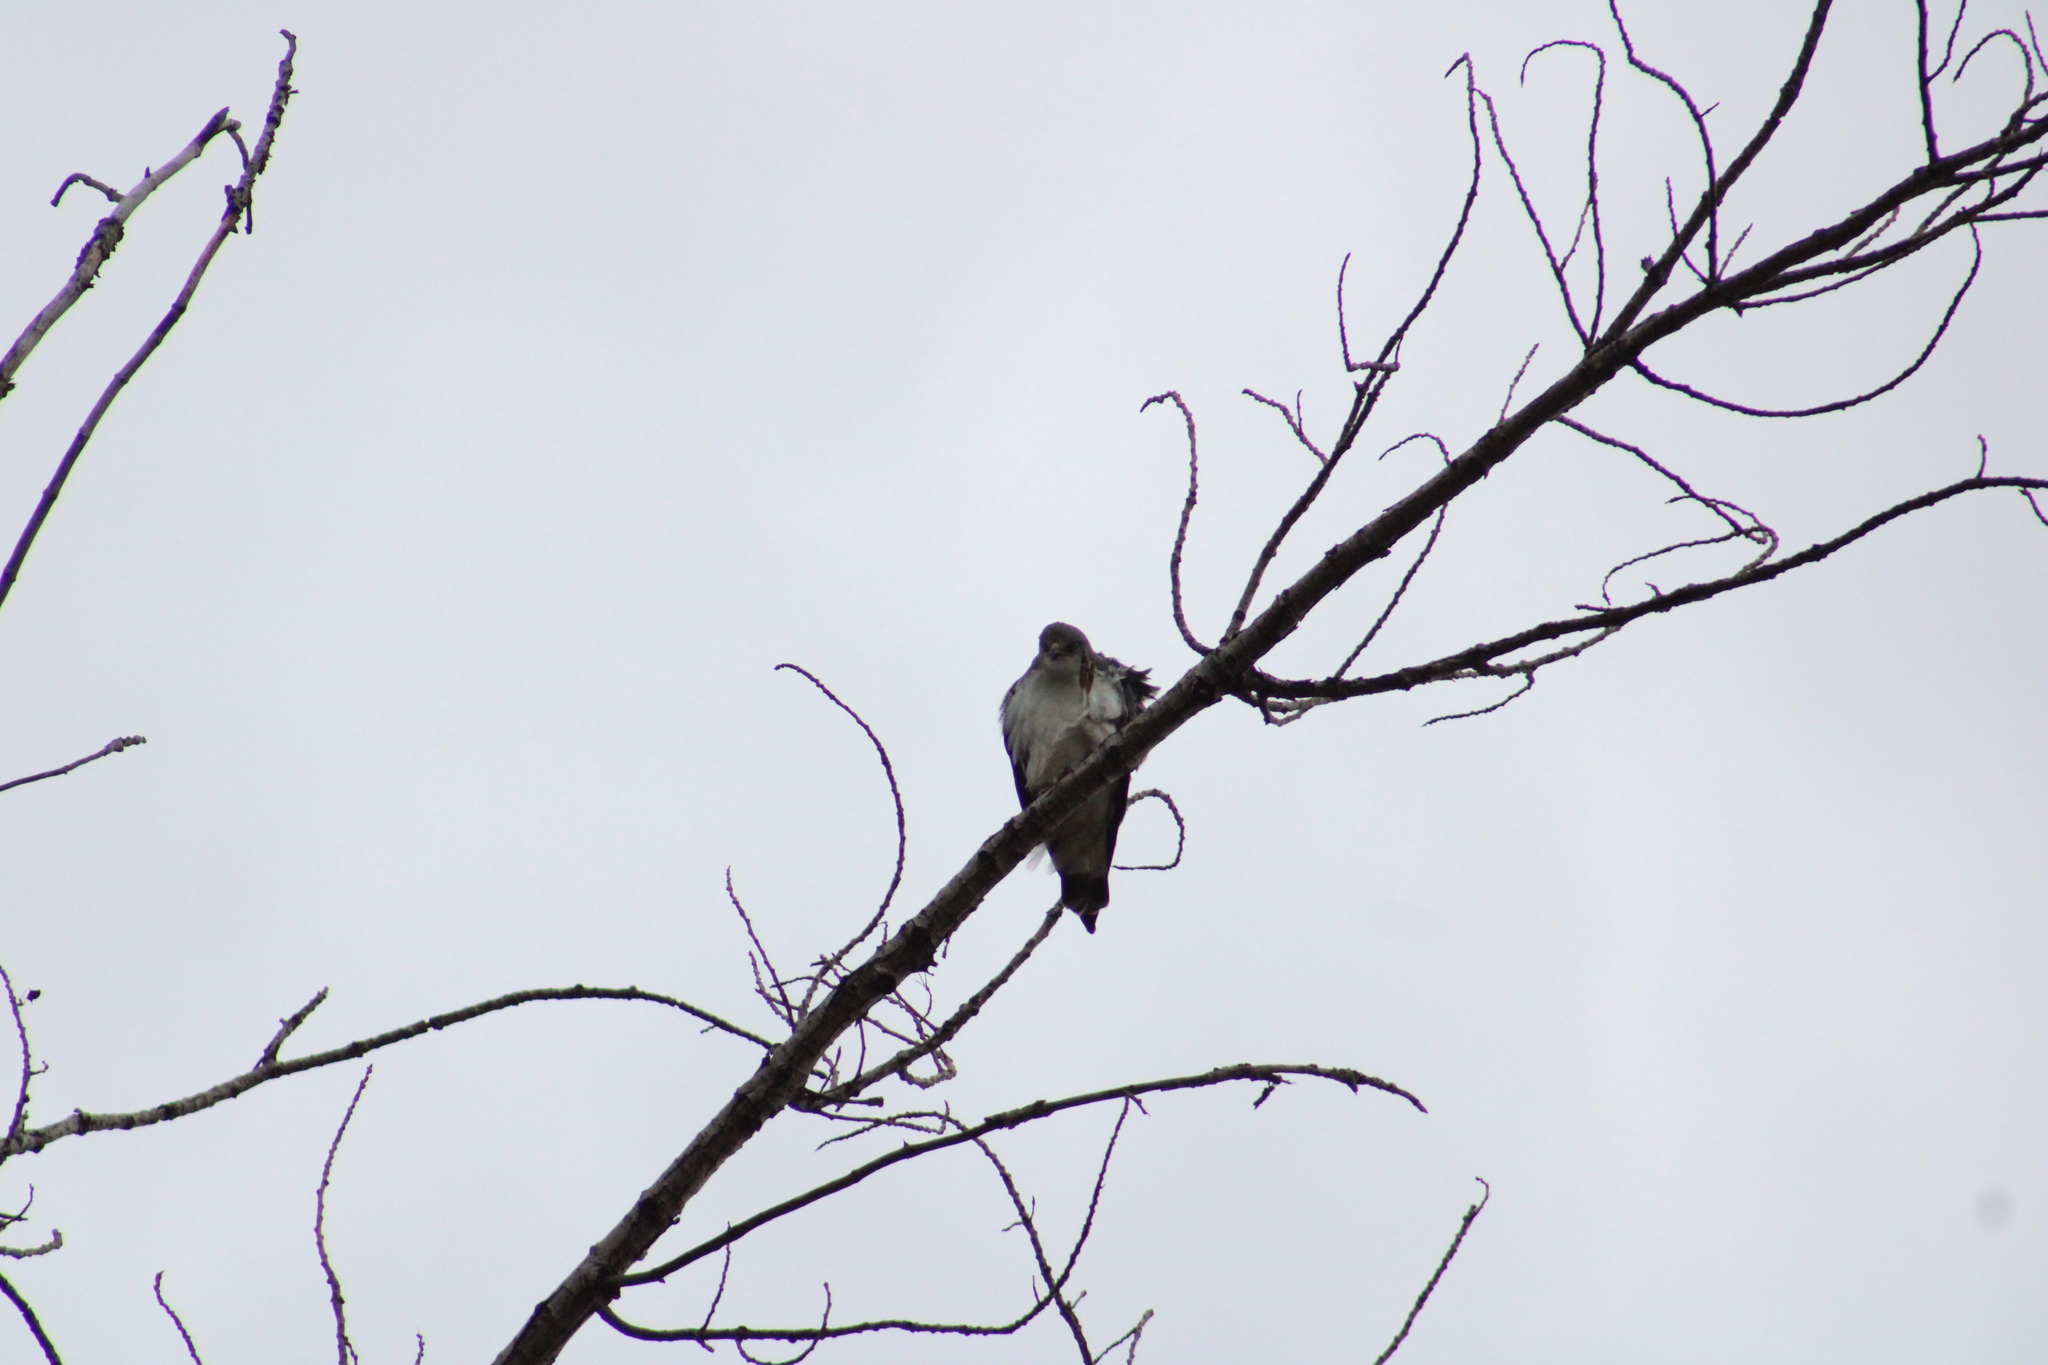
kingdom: Animalia
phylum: Chordata
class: Aves
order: Accipitriformes
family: Accipitridae
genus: Buteo
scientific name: Buteo polyosoma
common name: Variable hawk
